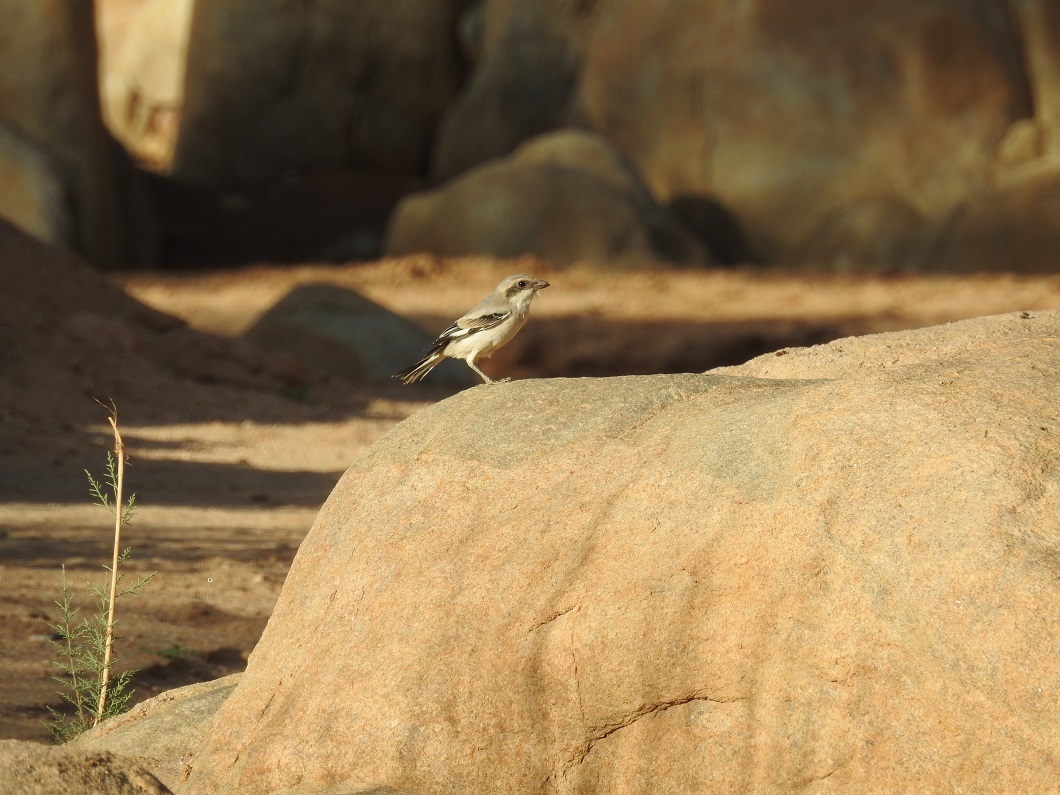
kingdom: Animalia
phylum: Chordata
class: Aves
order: Passeriformes
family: Laniidae
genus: Lanius
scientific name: Lanius excubitor
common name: Great grey shrike
